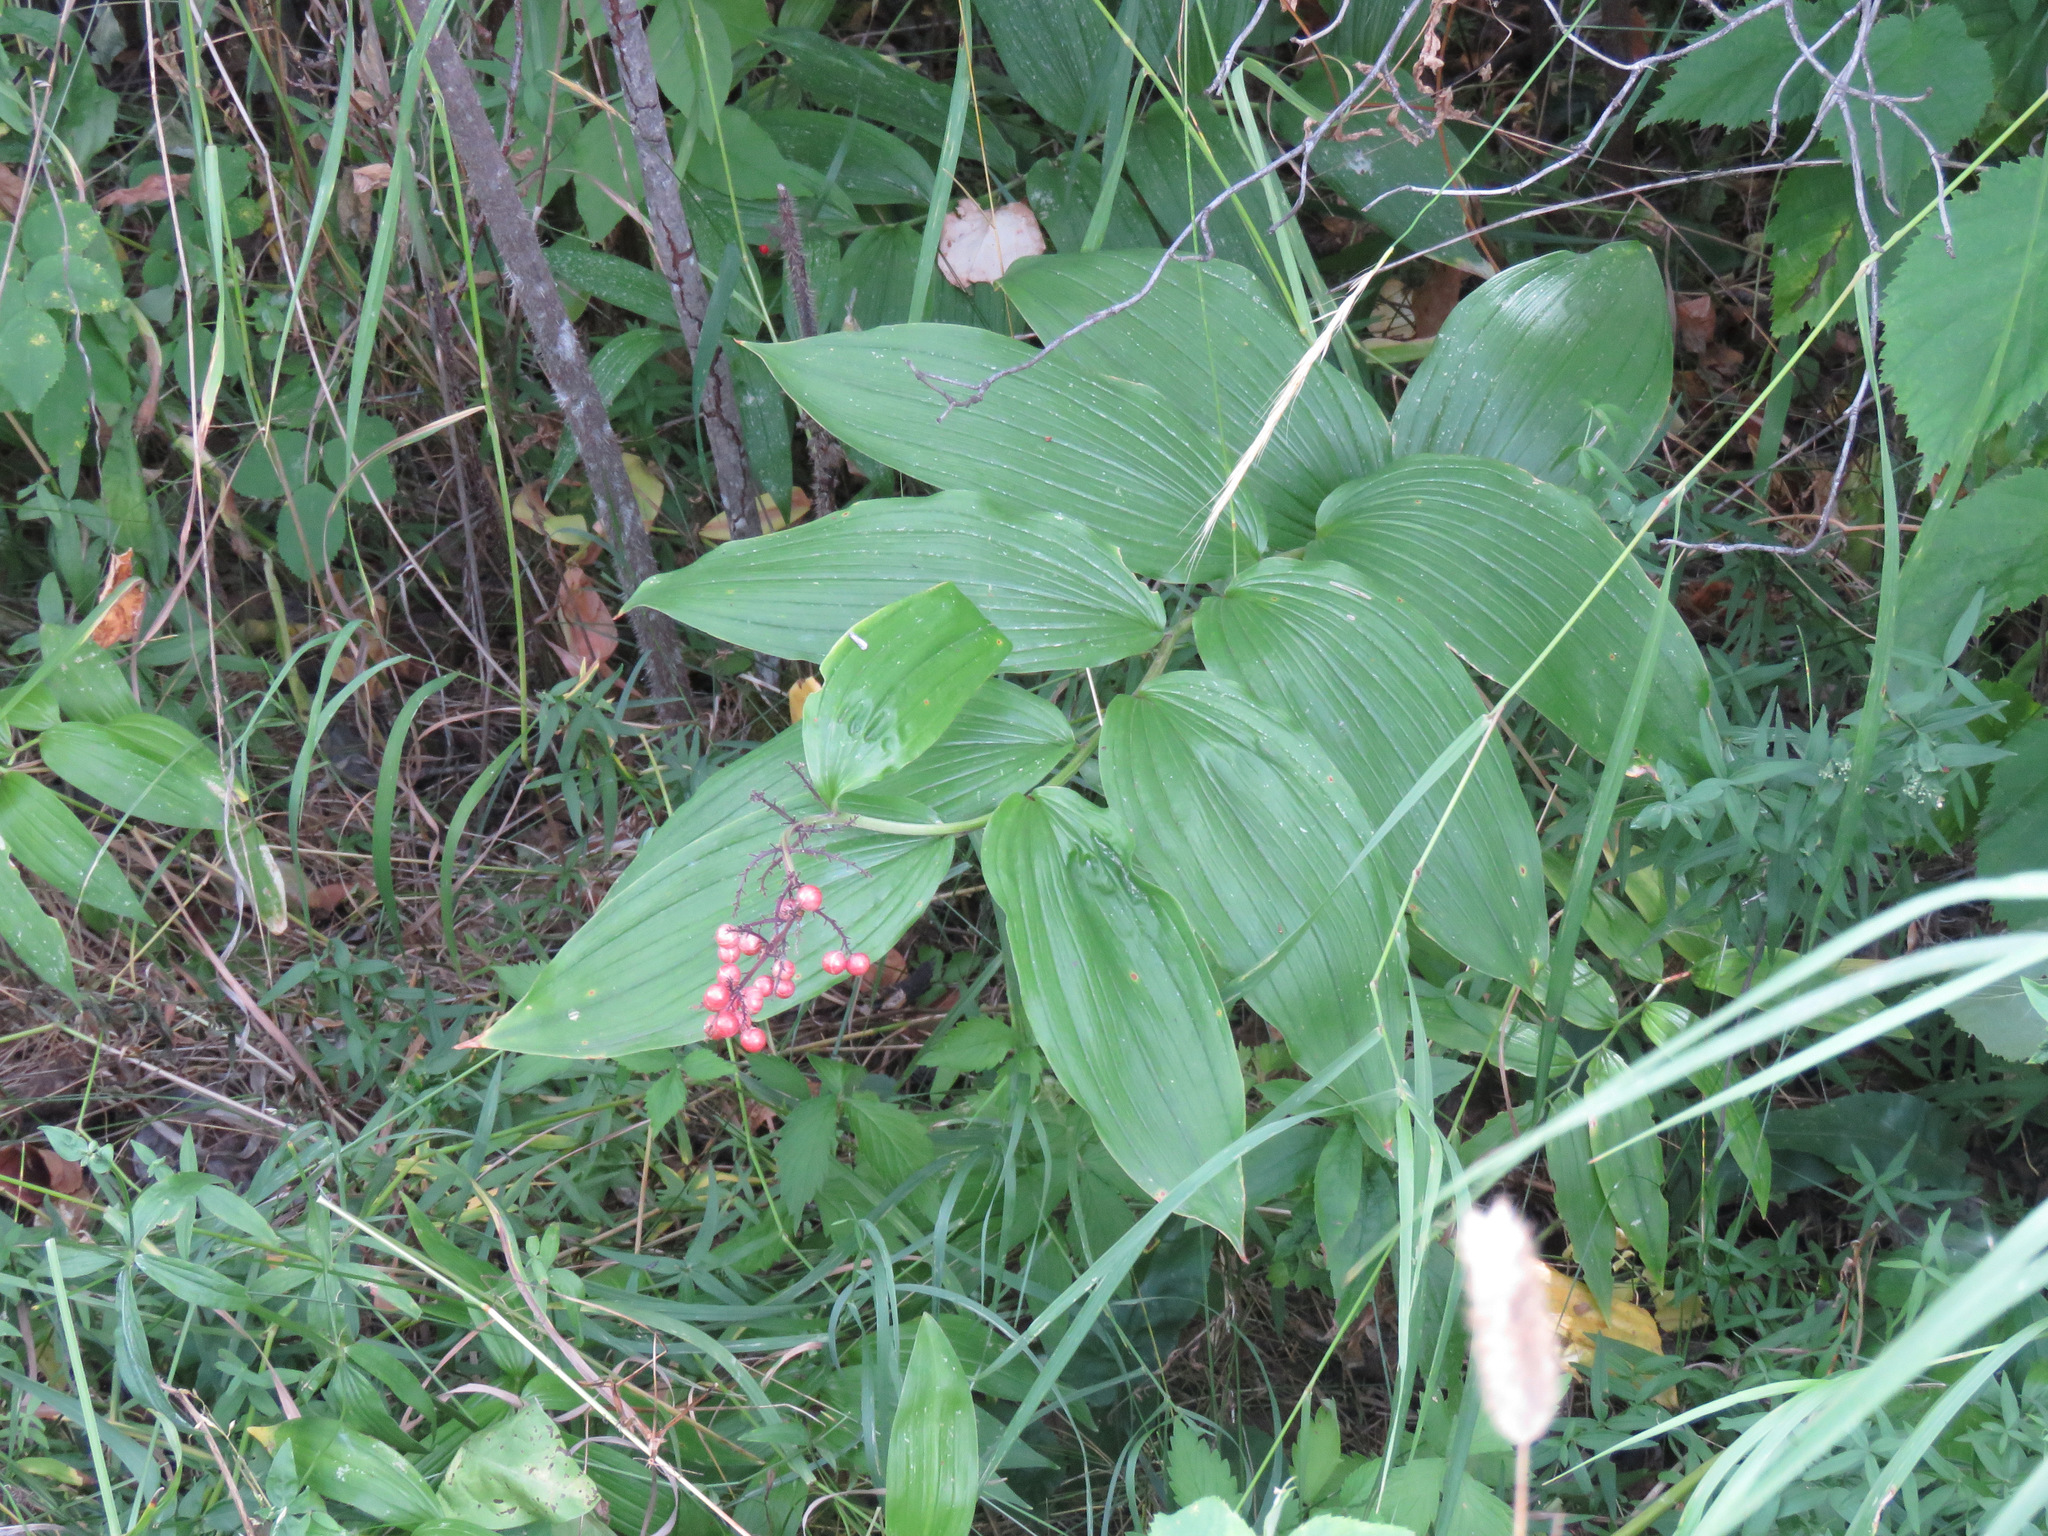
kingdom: Plantae
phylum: Tracheophyta
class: Liliopsida
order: Asparagales
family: Asparagaceae
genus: Maianthemum
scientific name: Maianthemum racemosum
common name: False spikenard
